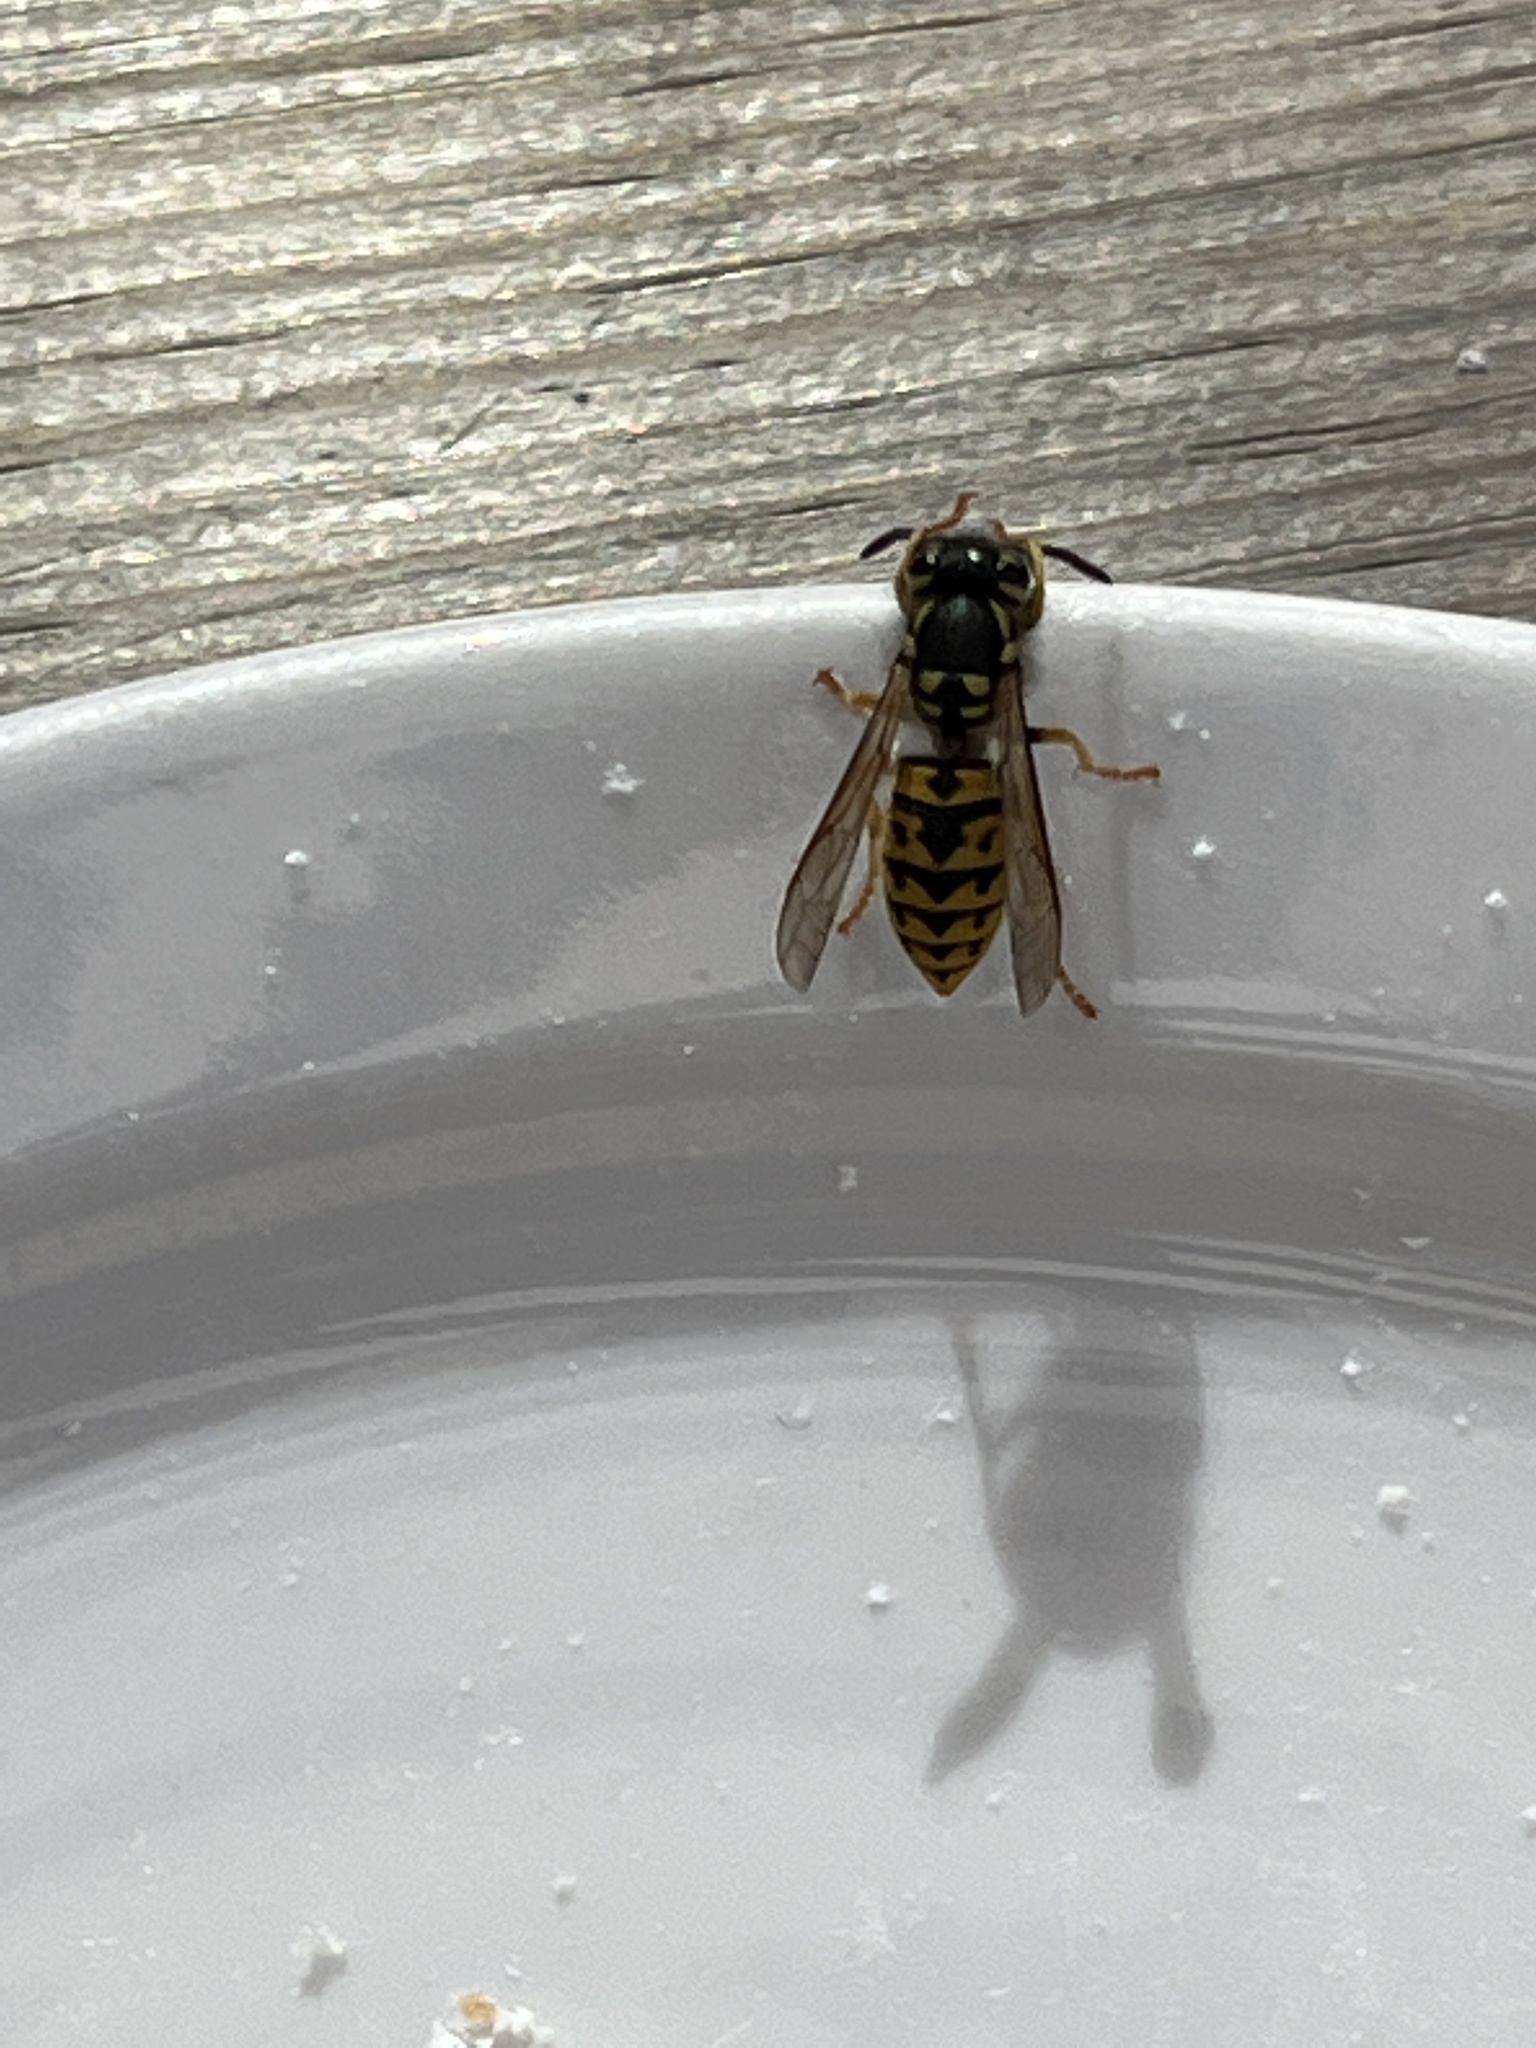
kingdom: Animalia
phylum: Arthropoda
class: Insecta
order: Hymenoptera
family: Vespidae
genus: Vespula
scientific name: Vespula germanica
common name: German wasp
